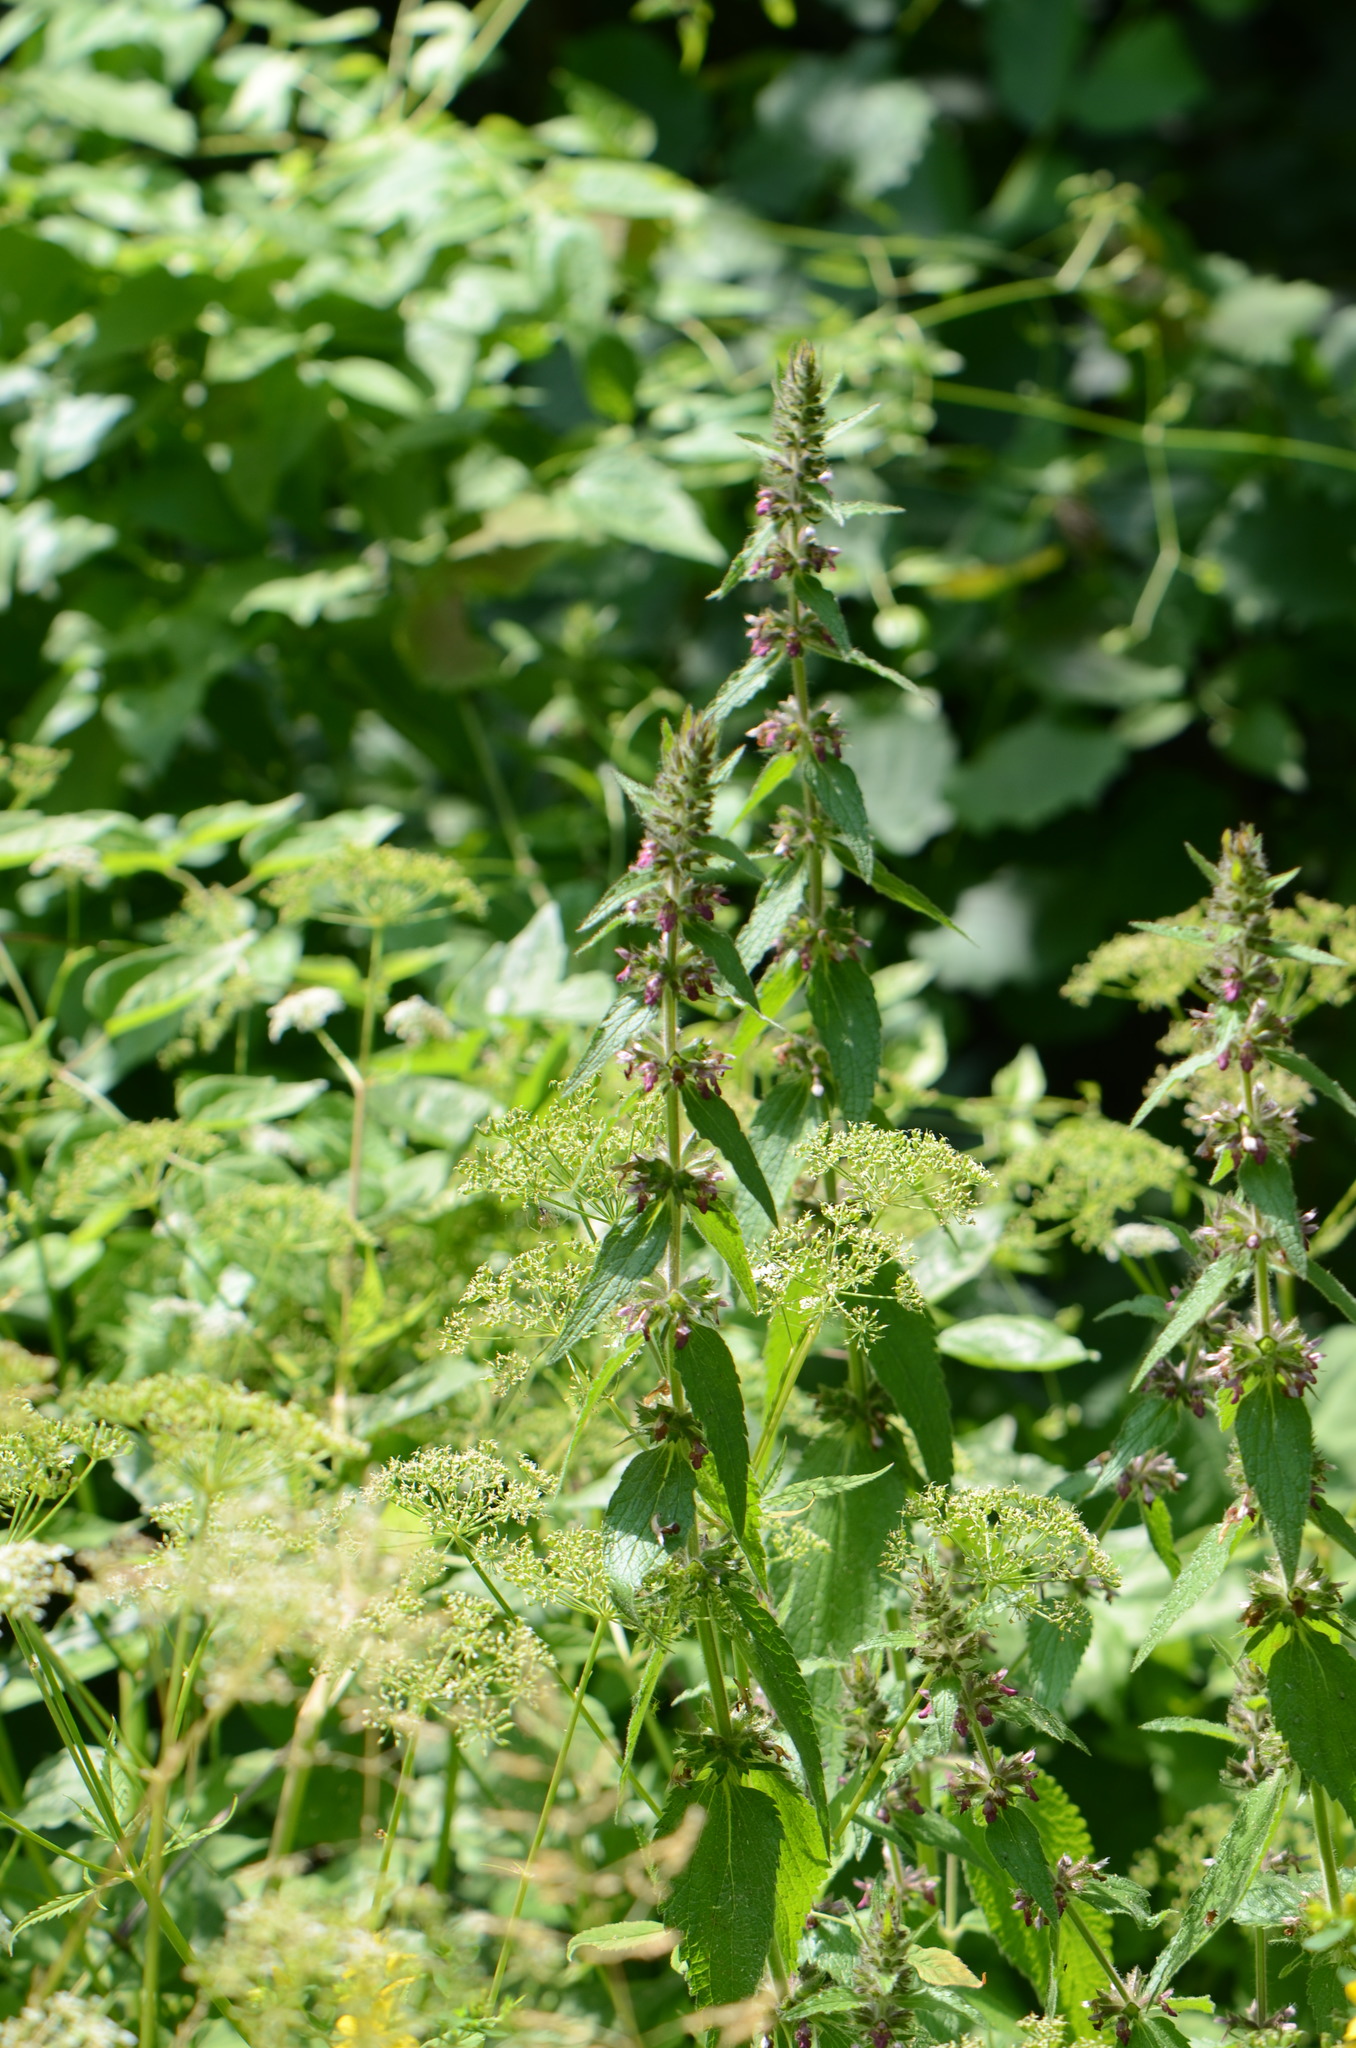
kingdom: Plantae
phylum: Tracheophyta
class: Magnoliopsida
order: Lamiales
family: Lamiaceae
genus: Stachys
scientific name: Stachys sylvatica
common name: Hedge woundwort
